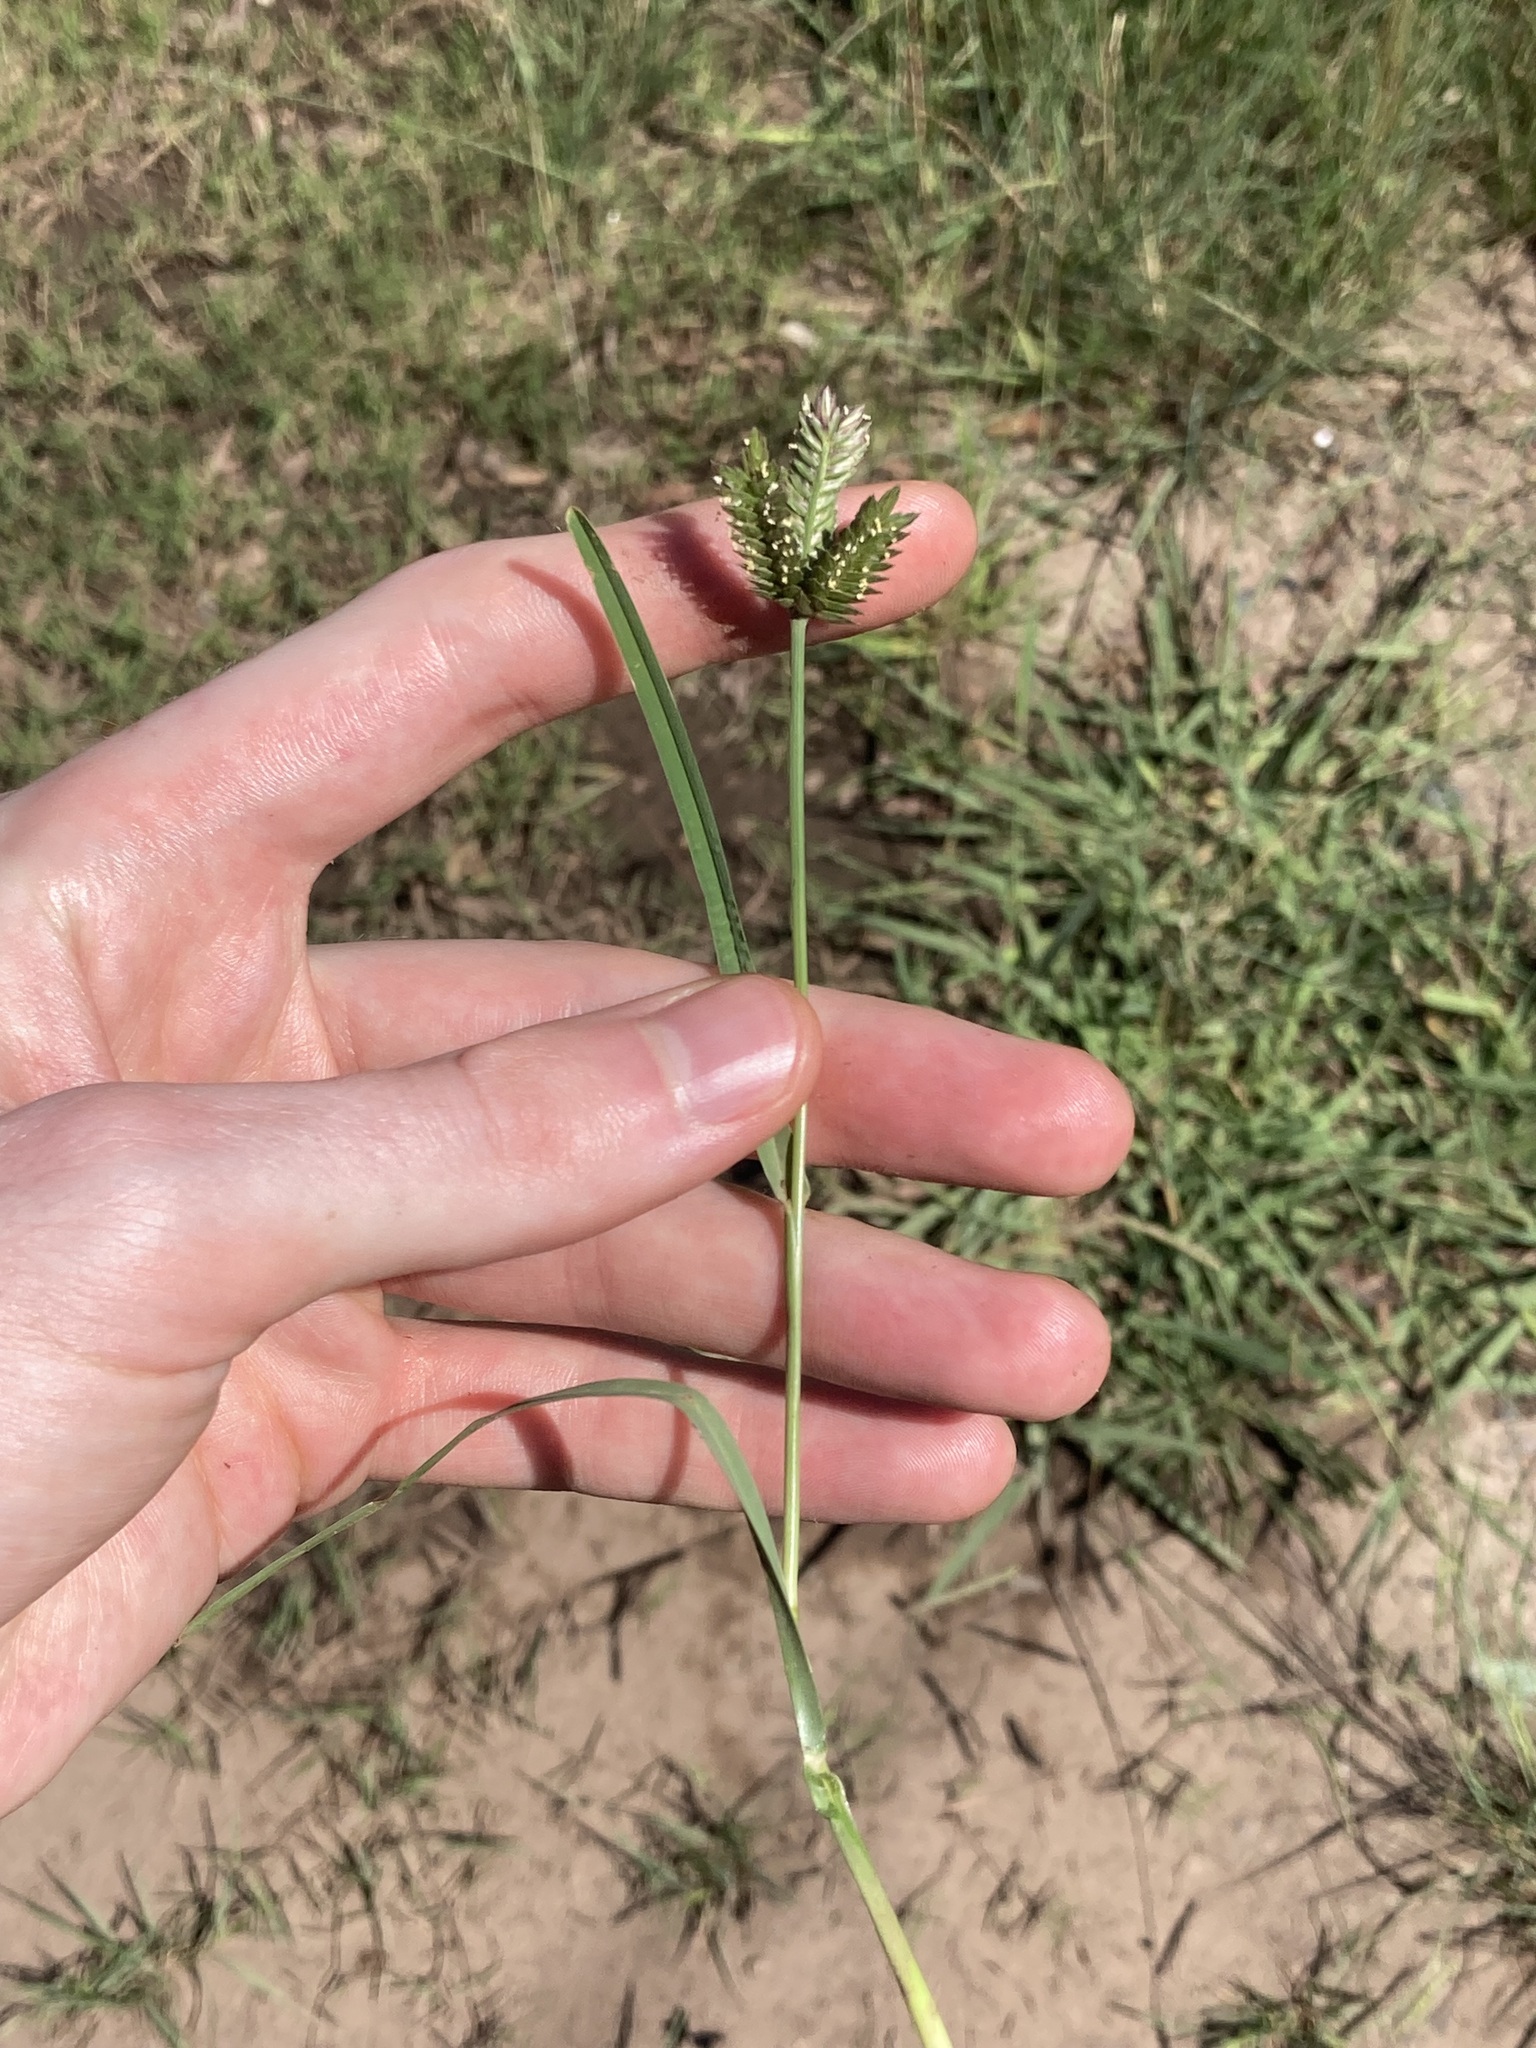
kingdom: Plantae
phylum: Tracheophyta
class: Liliopsida
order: Poales
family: Poaceae
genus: Eleusine
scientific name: Eleusine tristachya
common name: American yard-grass
